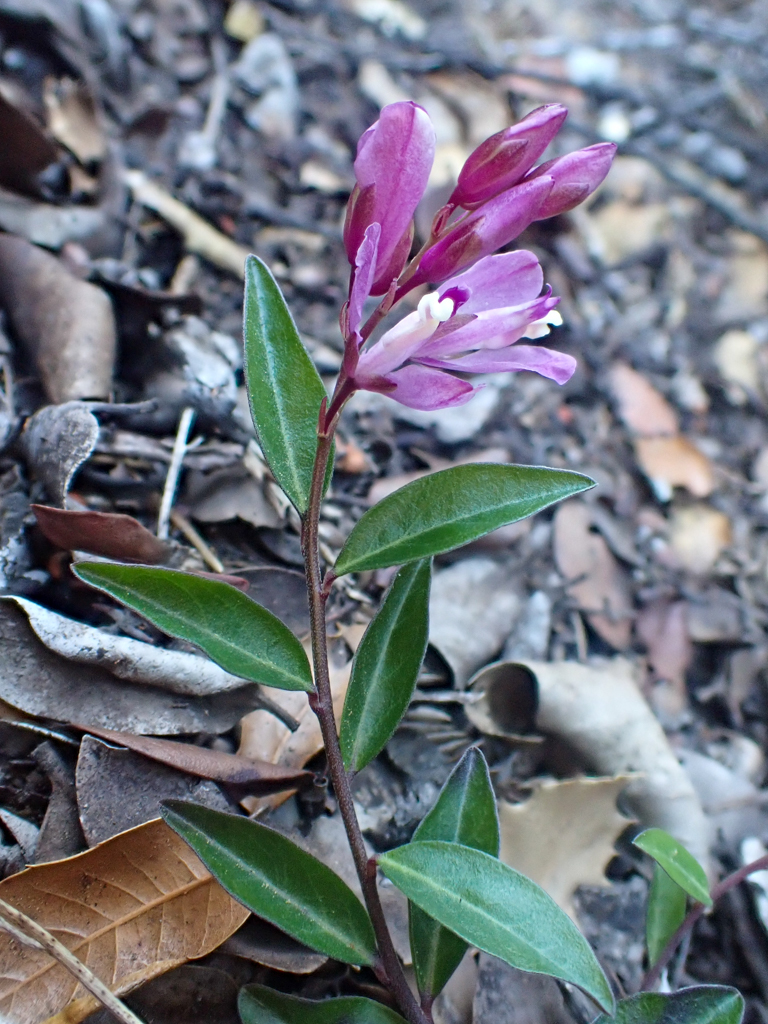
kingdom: Plantae
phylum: Tracheophyta
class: Magnoliopsida
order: Fabales
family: Polygalaceae
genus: Rhinotropis
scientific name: Rhinotropis californica
